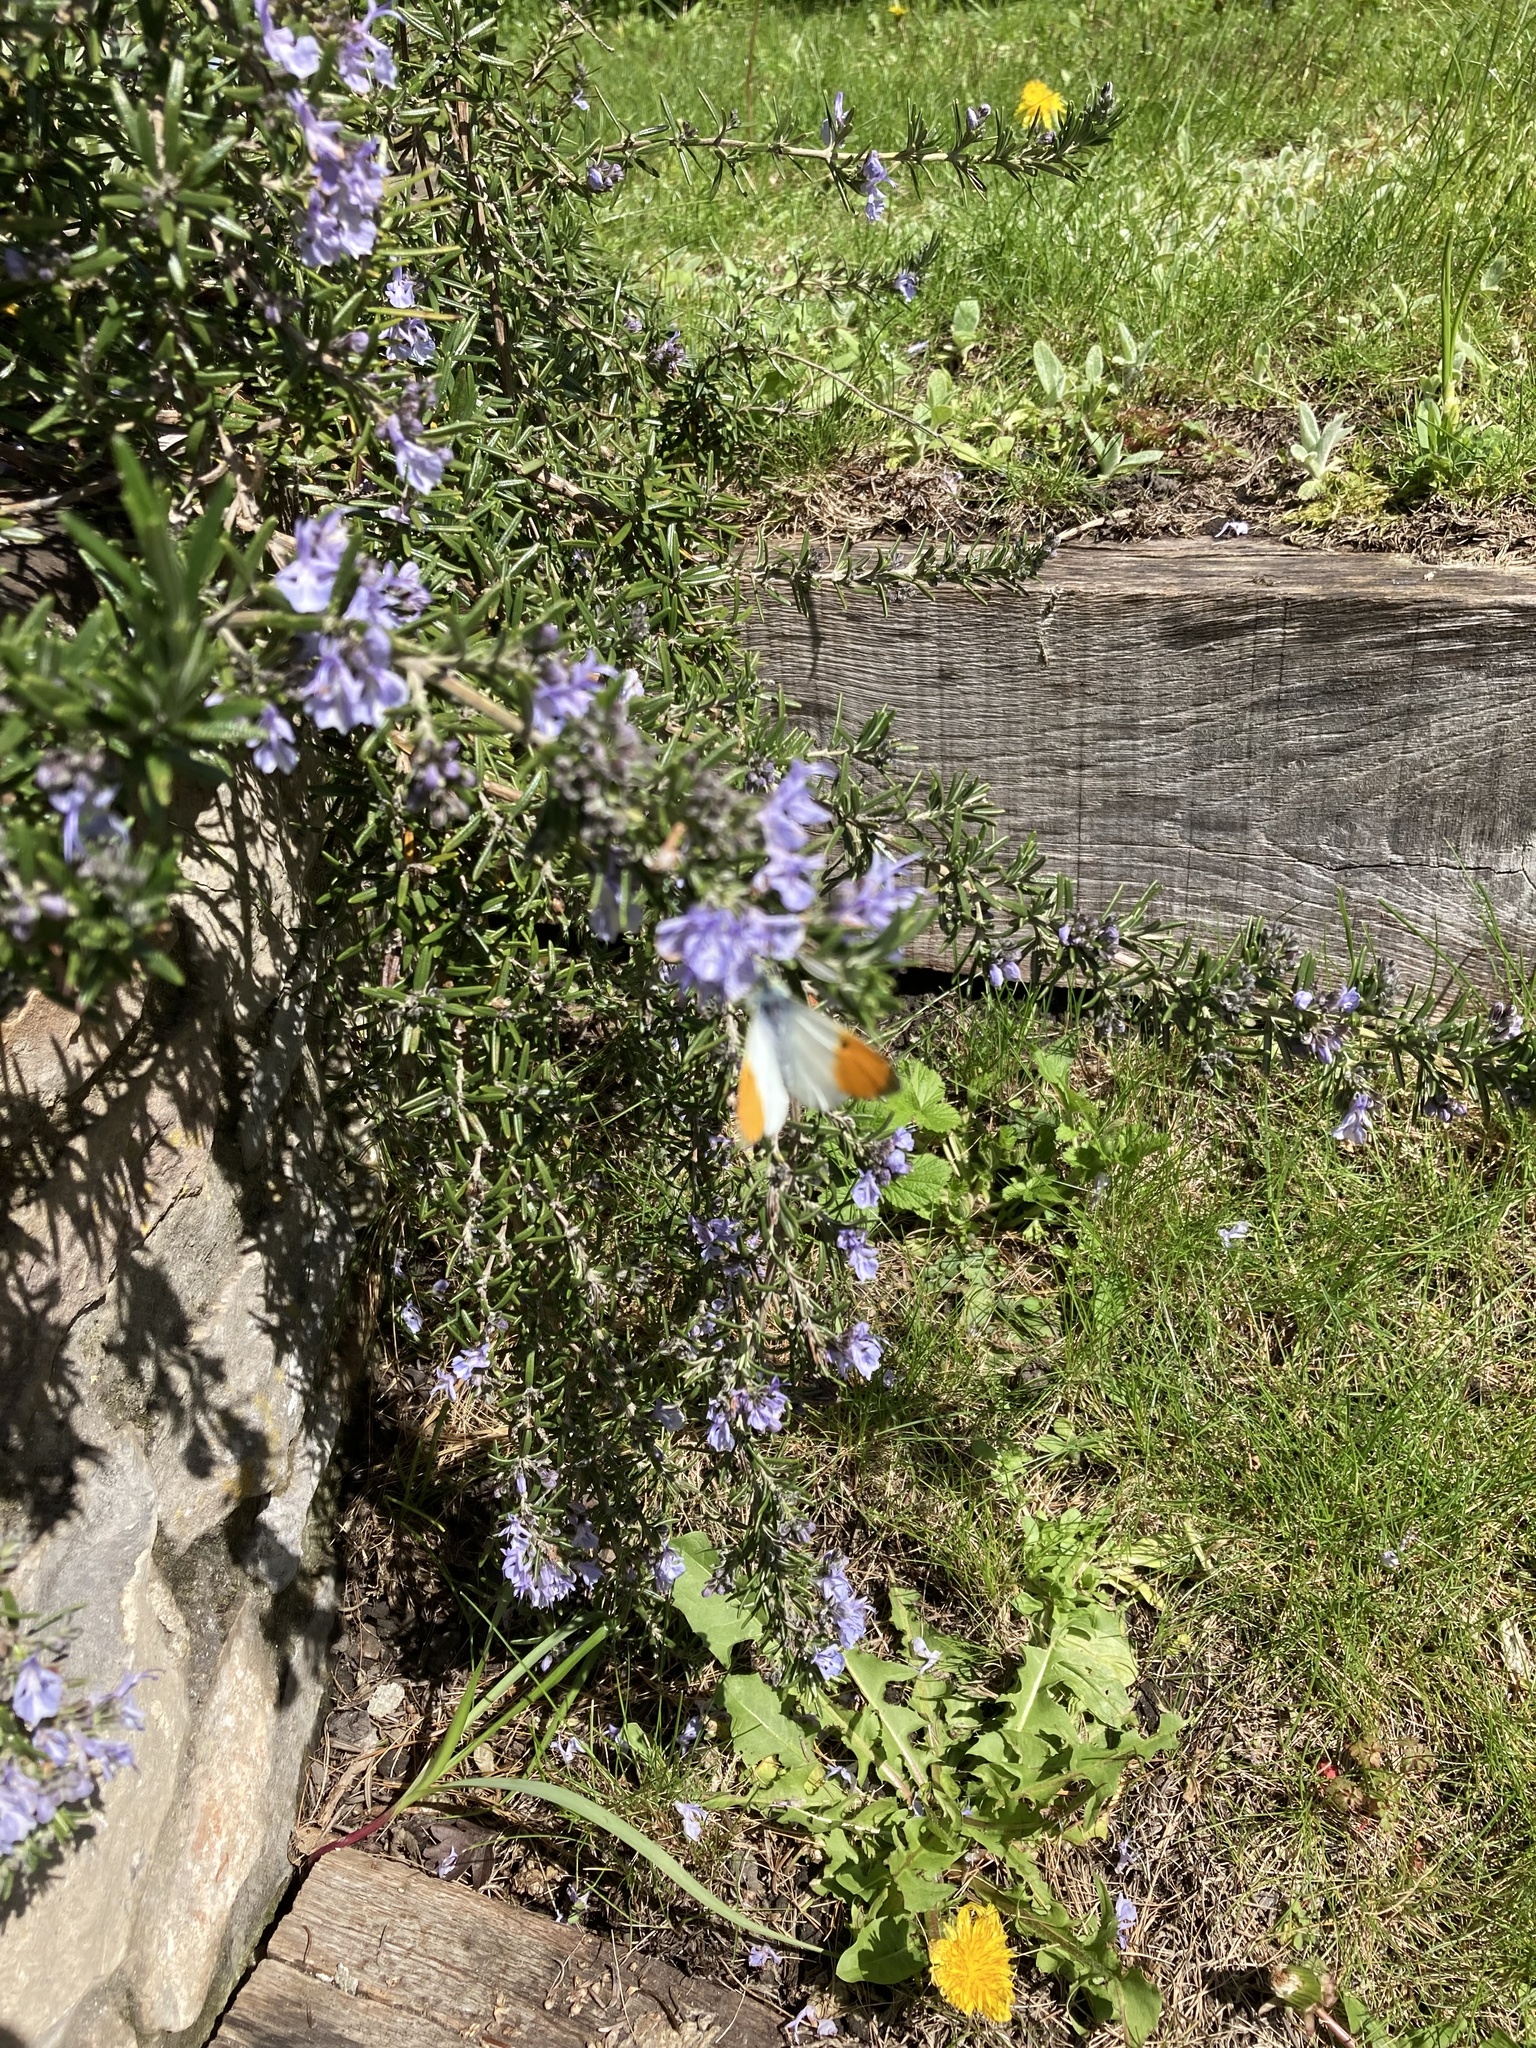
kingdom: Animalia
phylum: Arthropoda
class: Insecta
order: Lepidoptera
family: Pieridae
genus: Anthocharis
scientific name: Anthocharis cardamines
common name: Orange-tip
